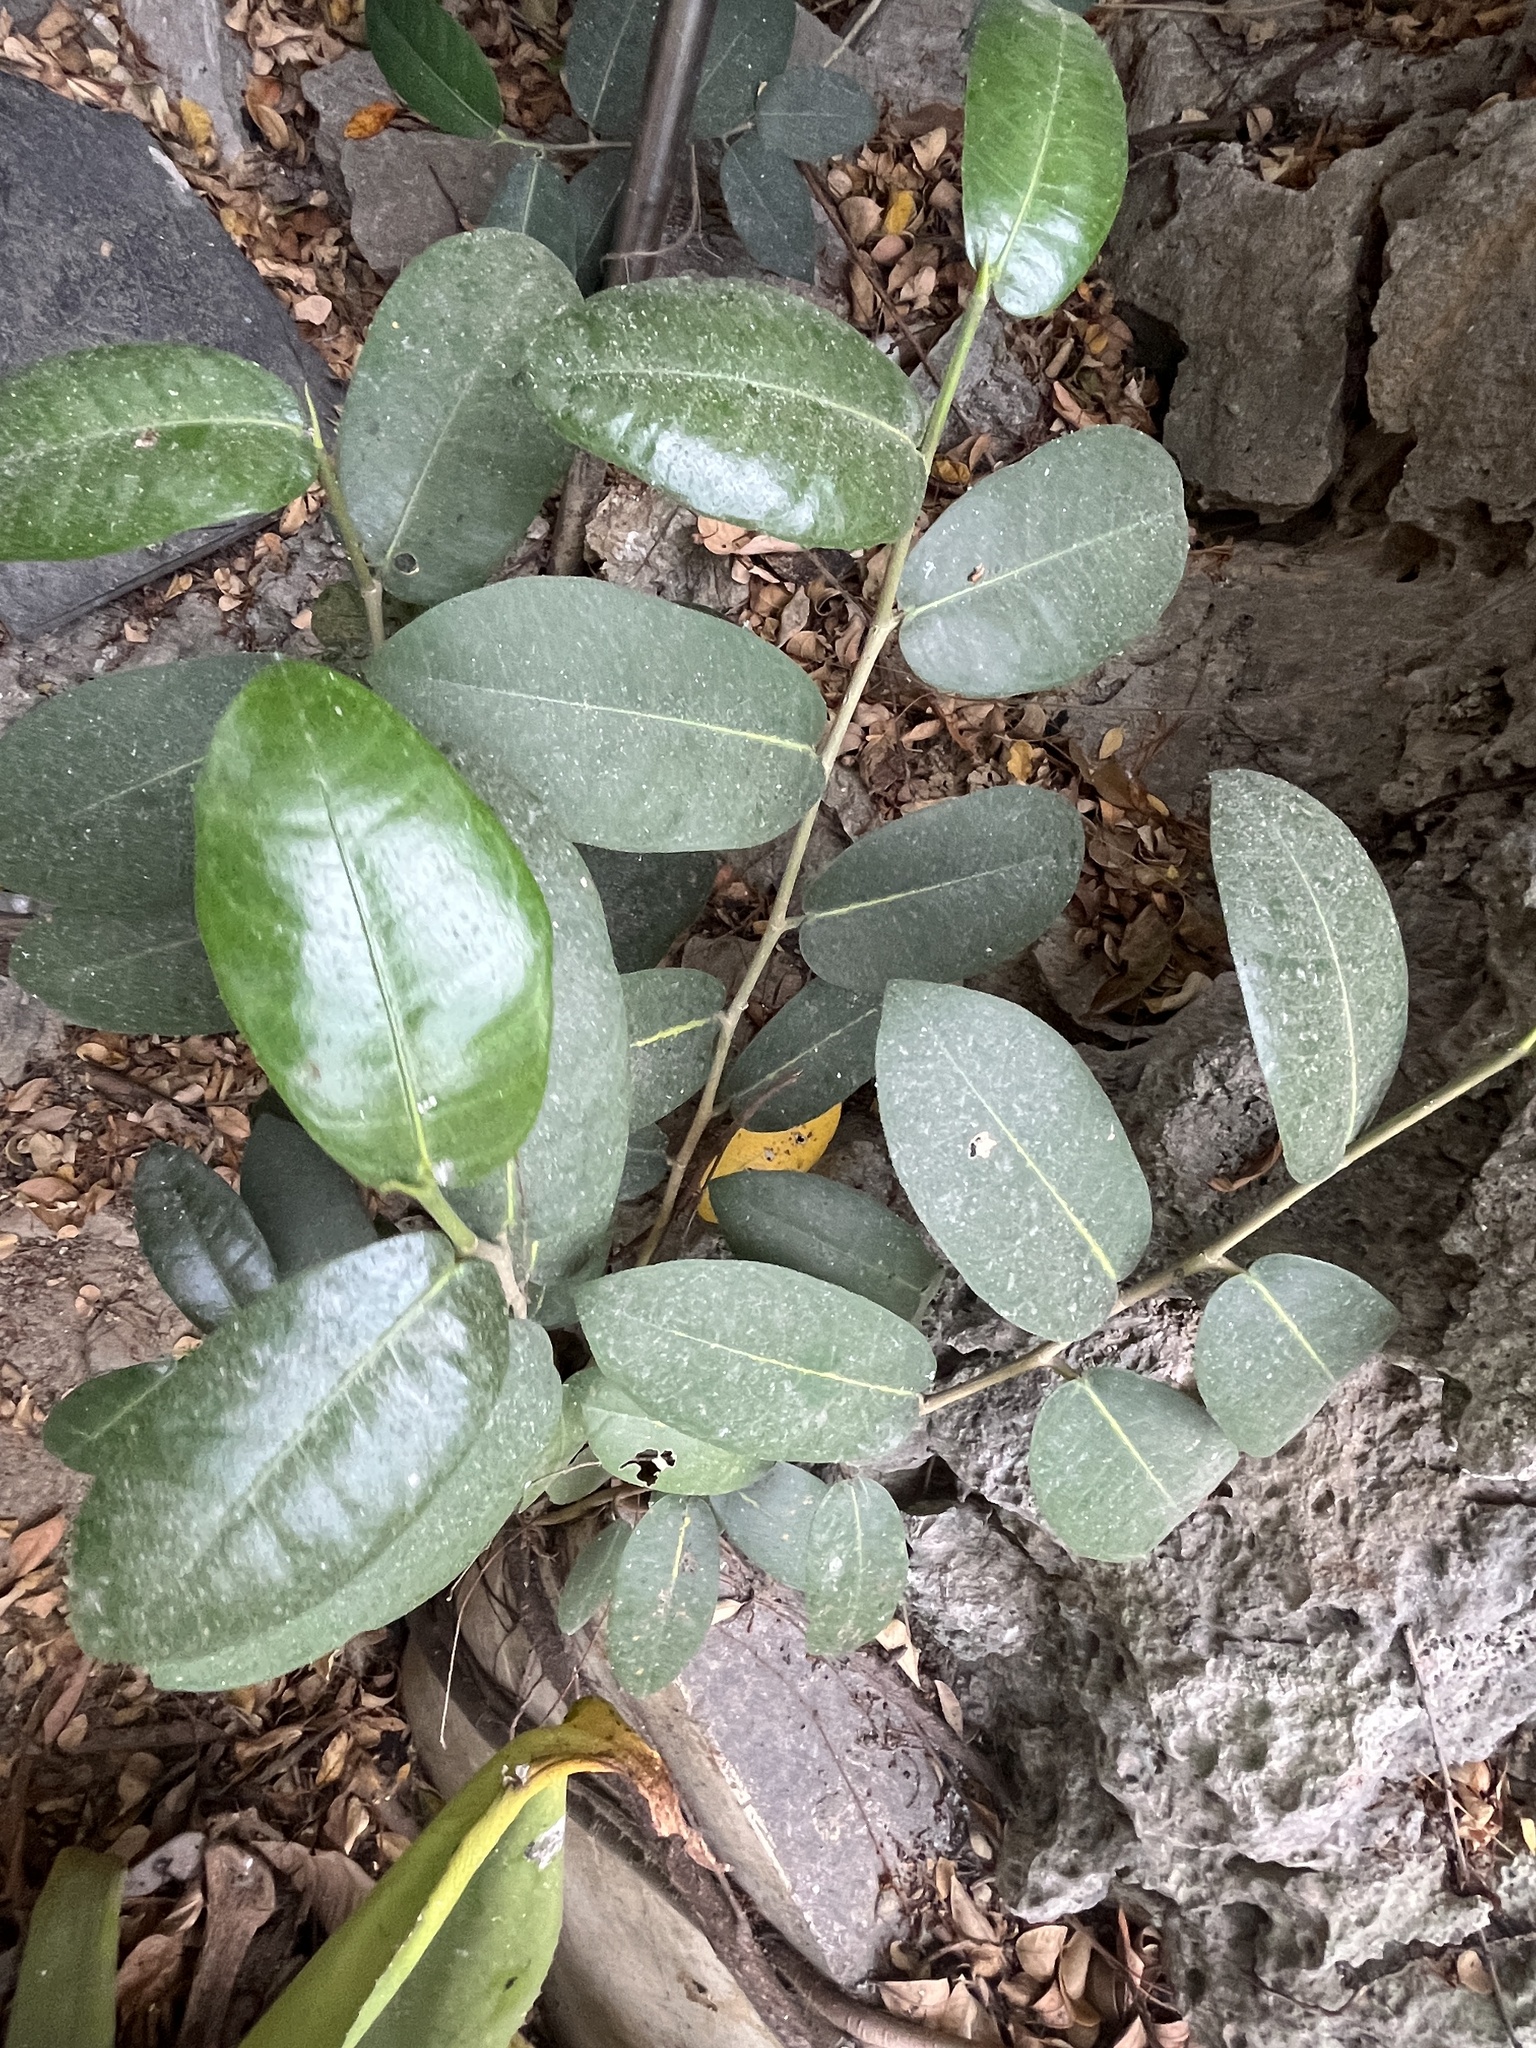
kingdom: Plantae
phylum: Tracheophyta
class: Magnoliopsida
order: Rosales
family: Moraceae
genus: Ficus
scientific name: Ficus tinctoria
